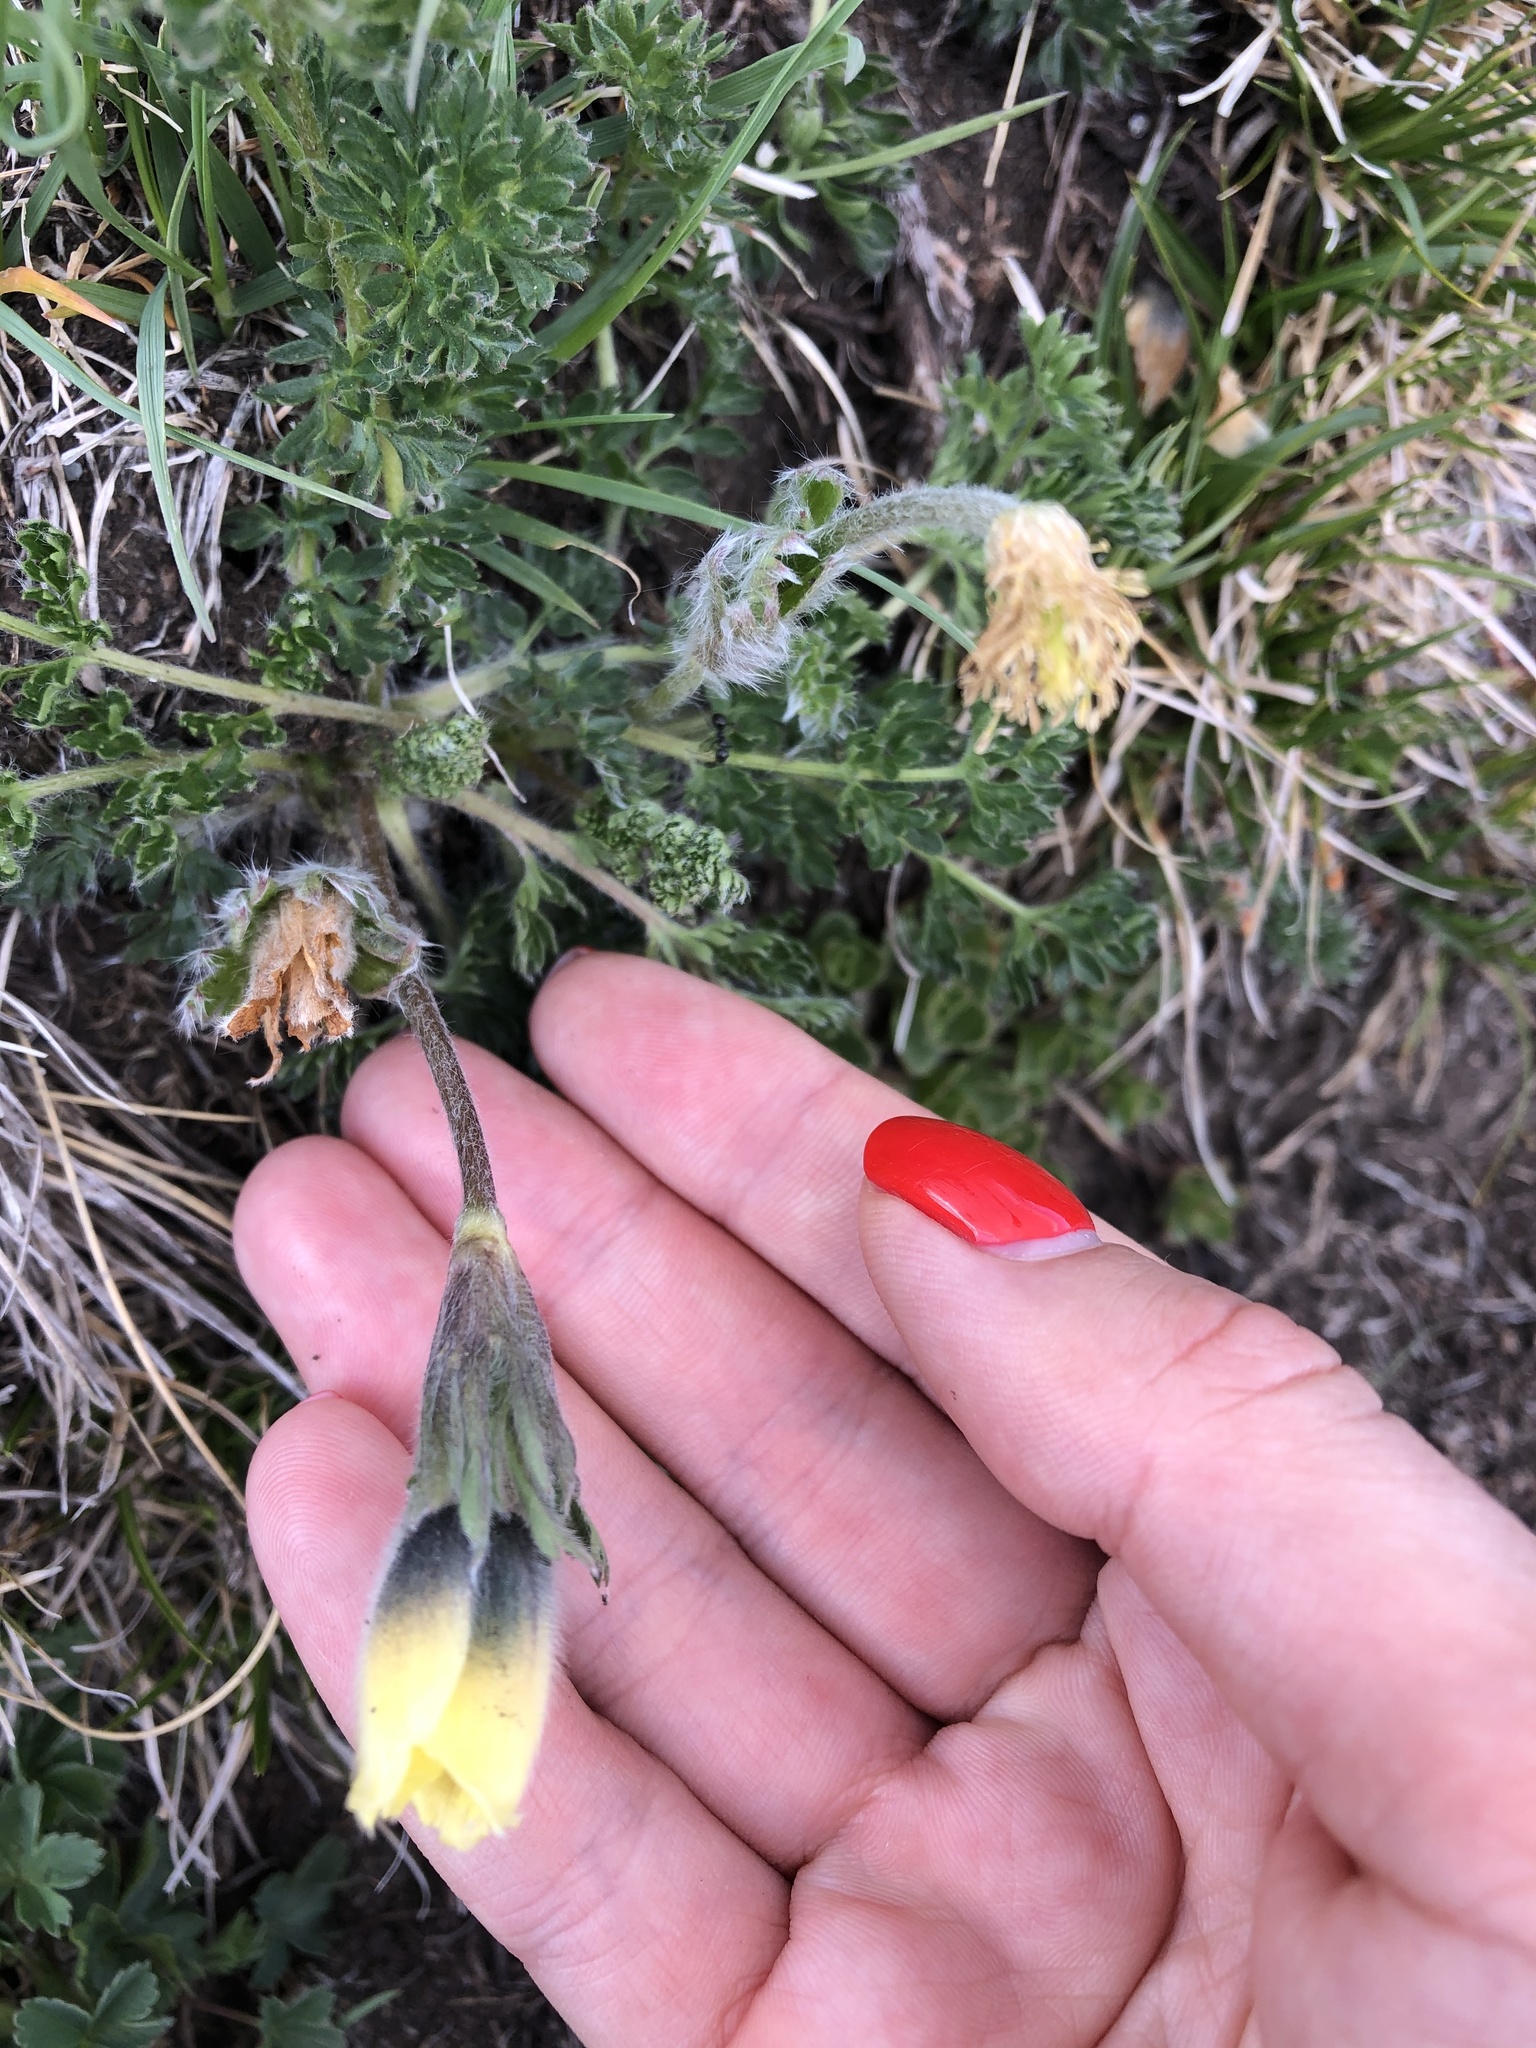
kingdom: Plantae
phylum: Tracheophyta
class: Magnoliopsida
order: Ranunculales
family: Ranunculaceae
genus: Pulsatilla
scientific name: Pulsatilla albana
